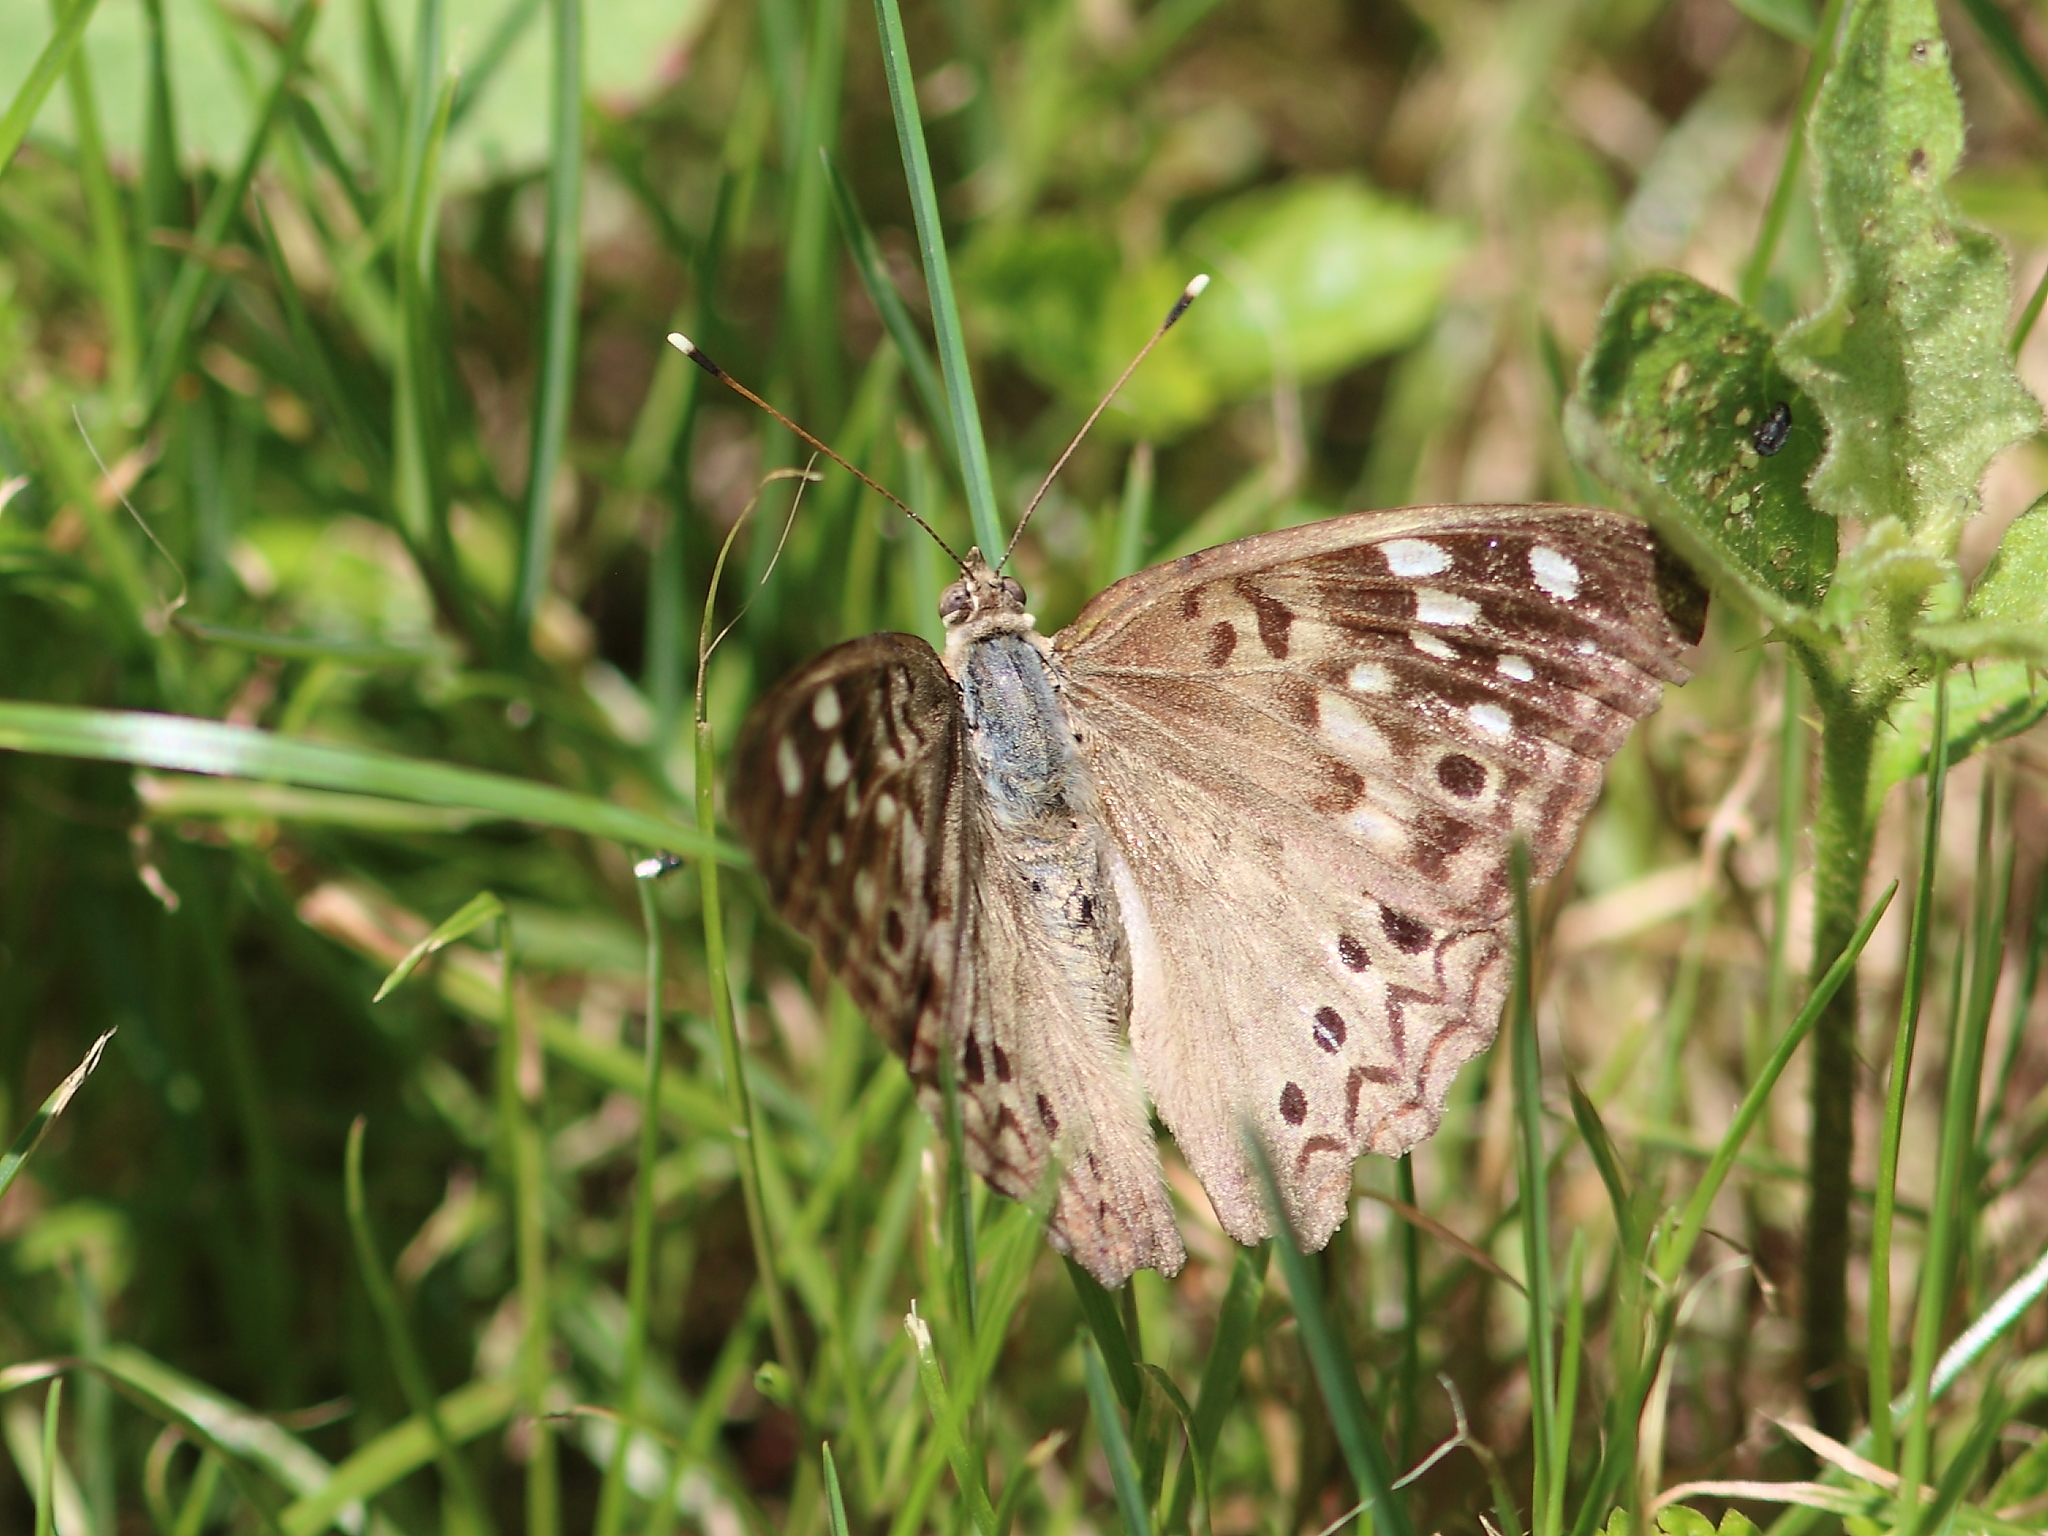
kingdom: Animalia
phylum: Arthropoda
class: Insecta
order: Lepidoptera
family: Nymphalidae
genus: Asterocampa
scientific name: Asterocampa celtis
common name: Hackberry emperor
